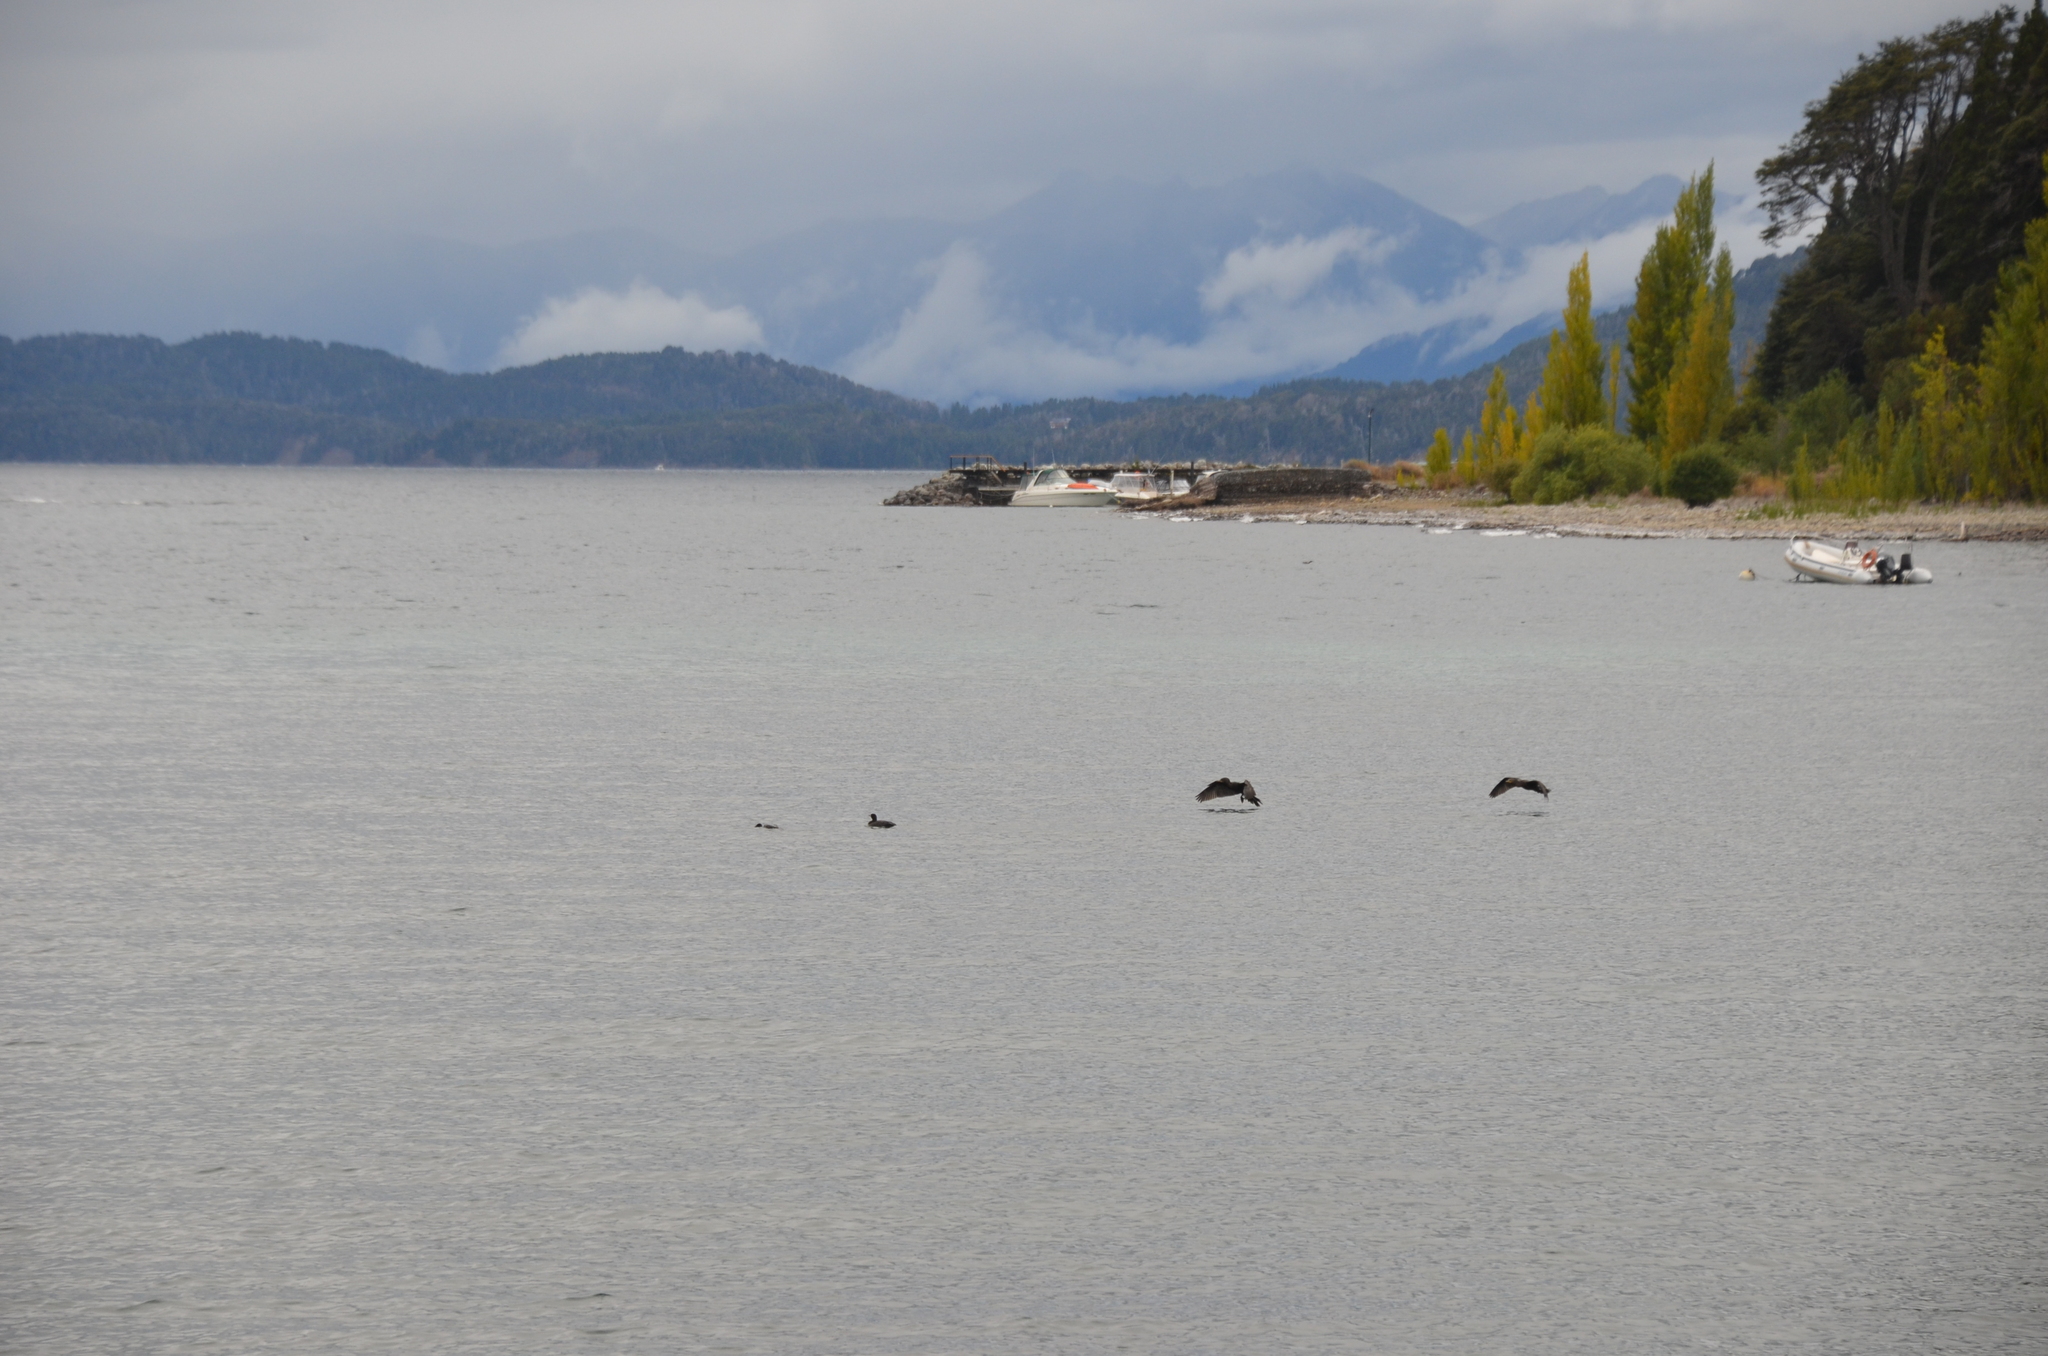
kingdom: Animalia
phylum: Chordata
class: Aves
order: Suliformes
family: Phalacrocoracidae
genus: Phalacrocorax
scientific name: Phalacrocorax brasilianus
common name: Neotropic cormorant
